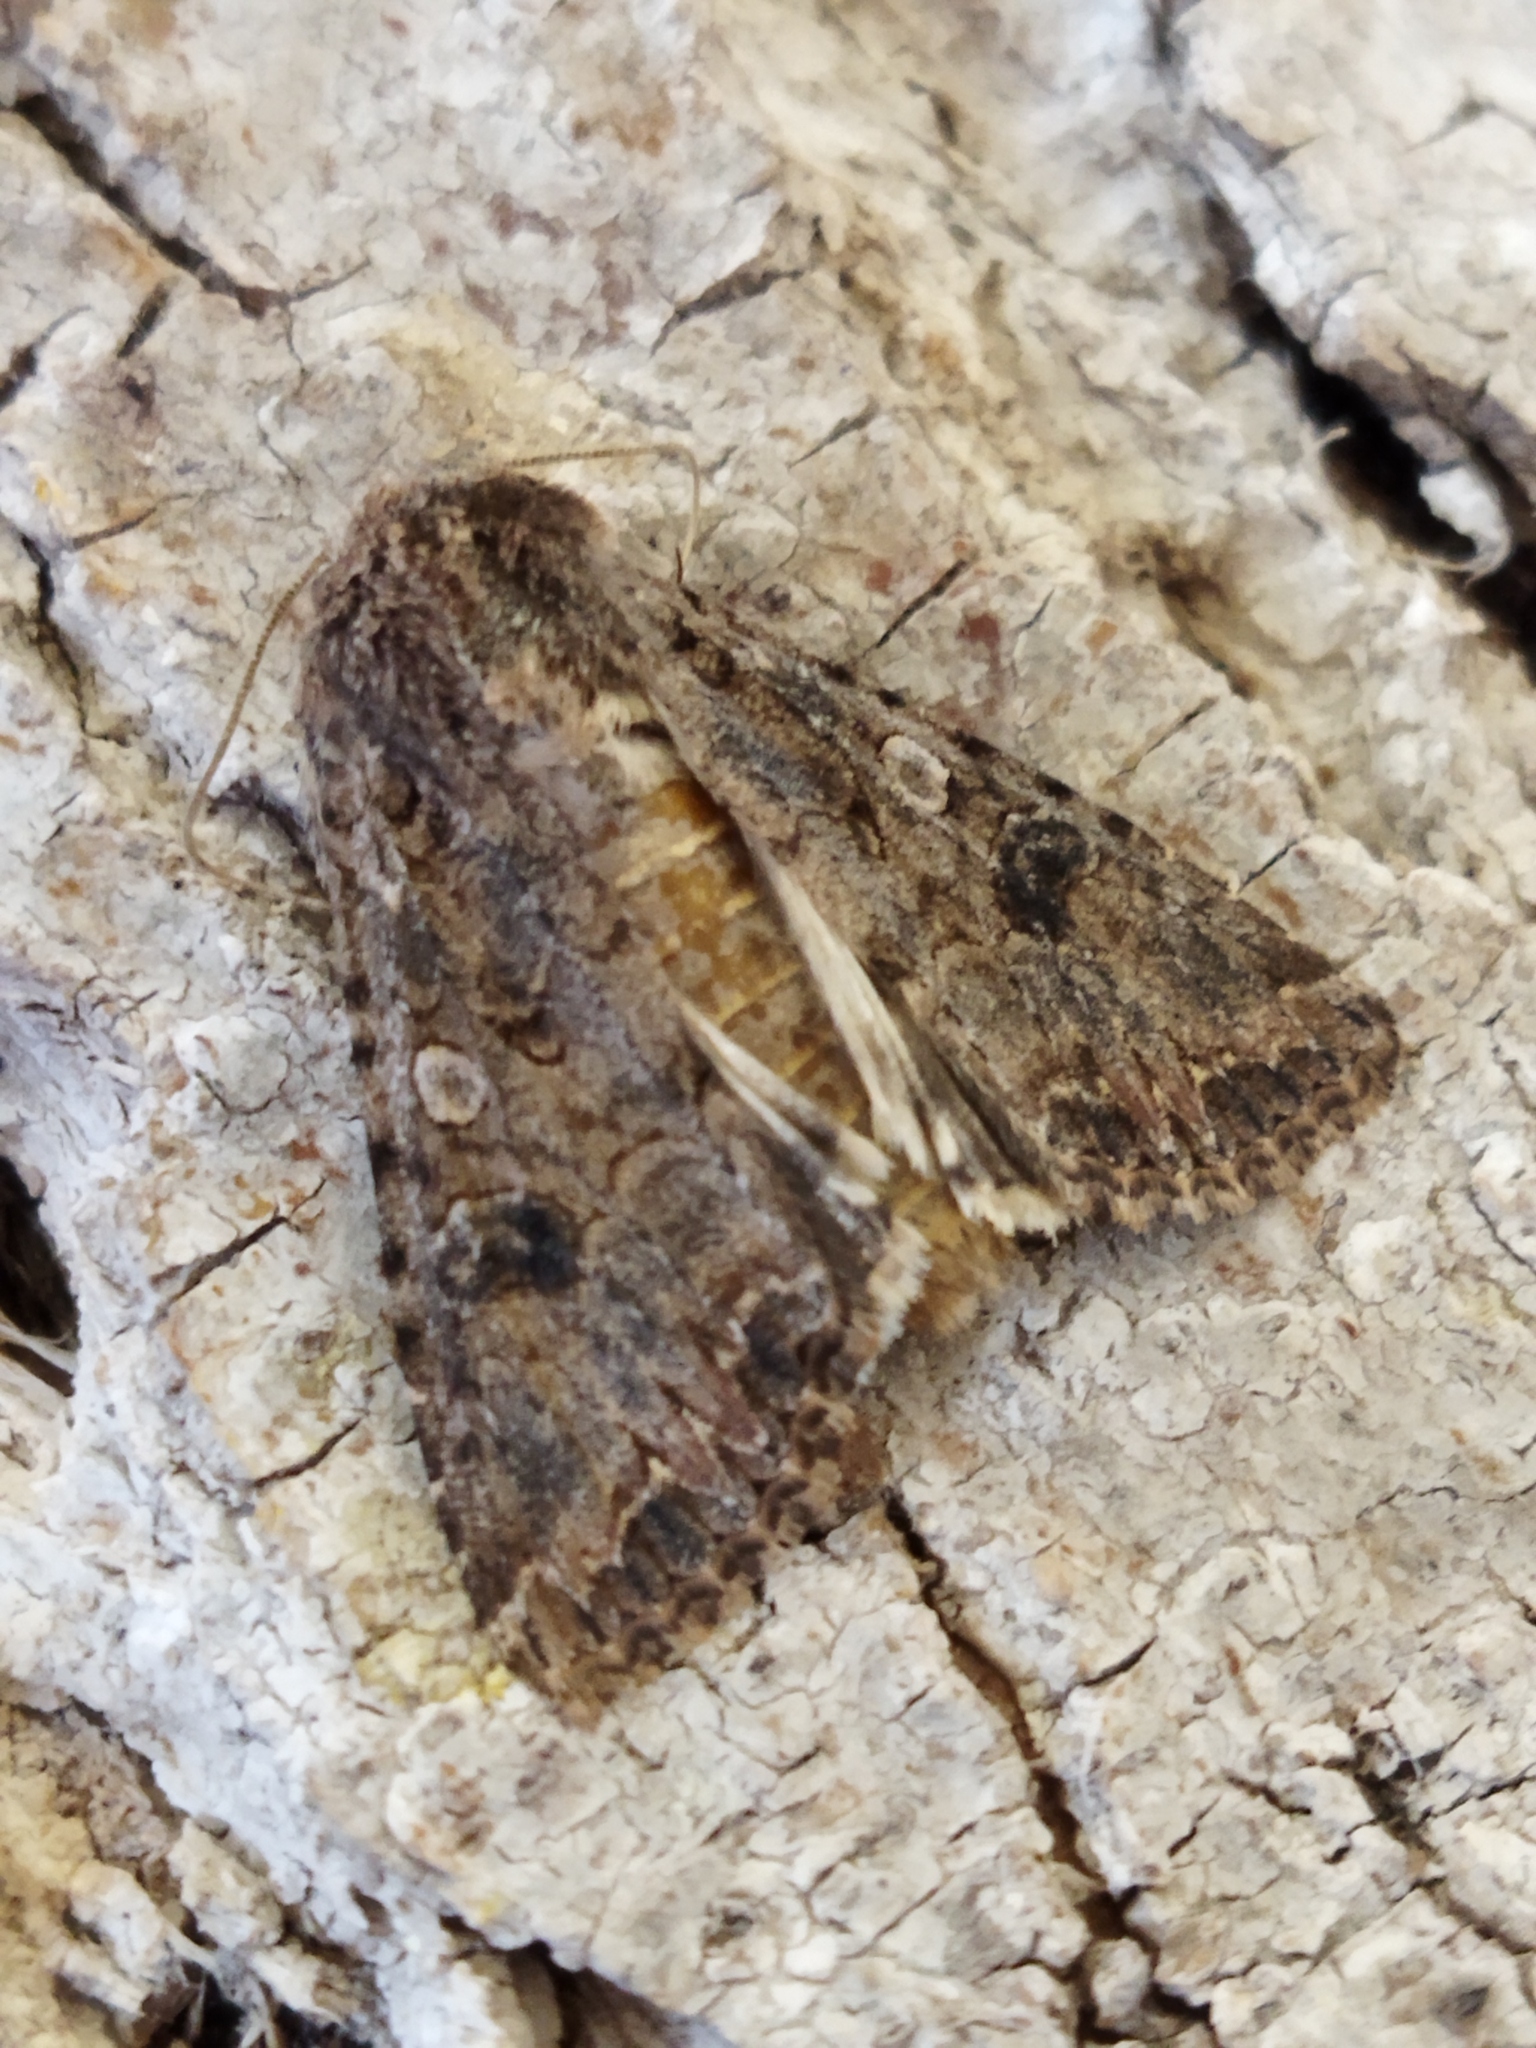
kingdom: Animalia
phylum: Arthropoda
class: Insecta
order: Lepidoptera
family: Noctuidae
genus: Anarta
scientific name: Anarta trifolii
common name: Clover cutworm moth
